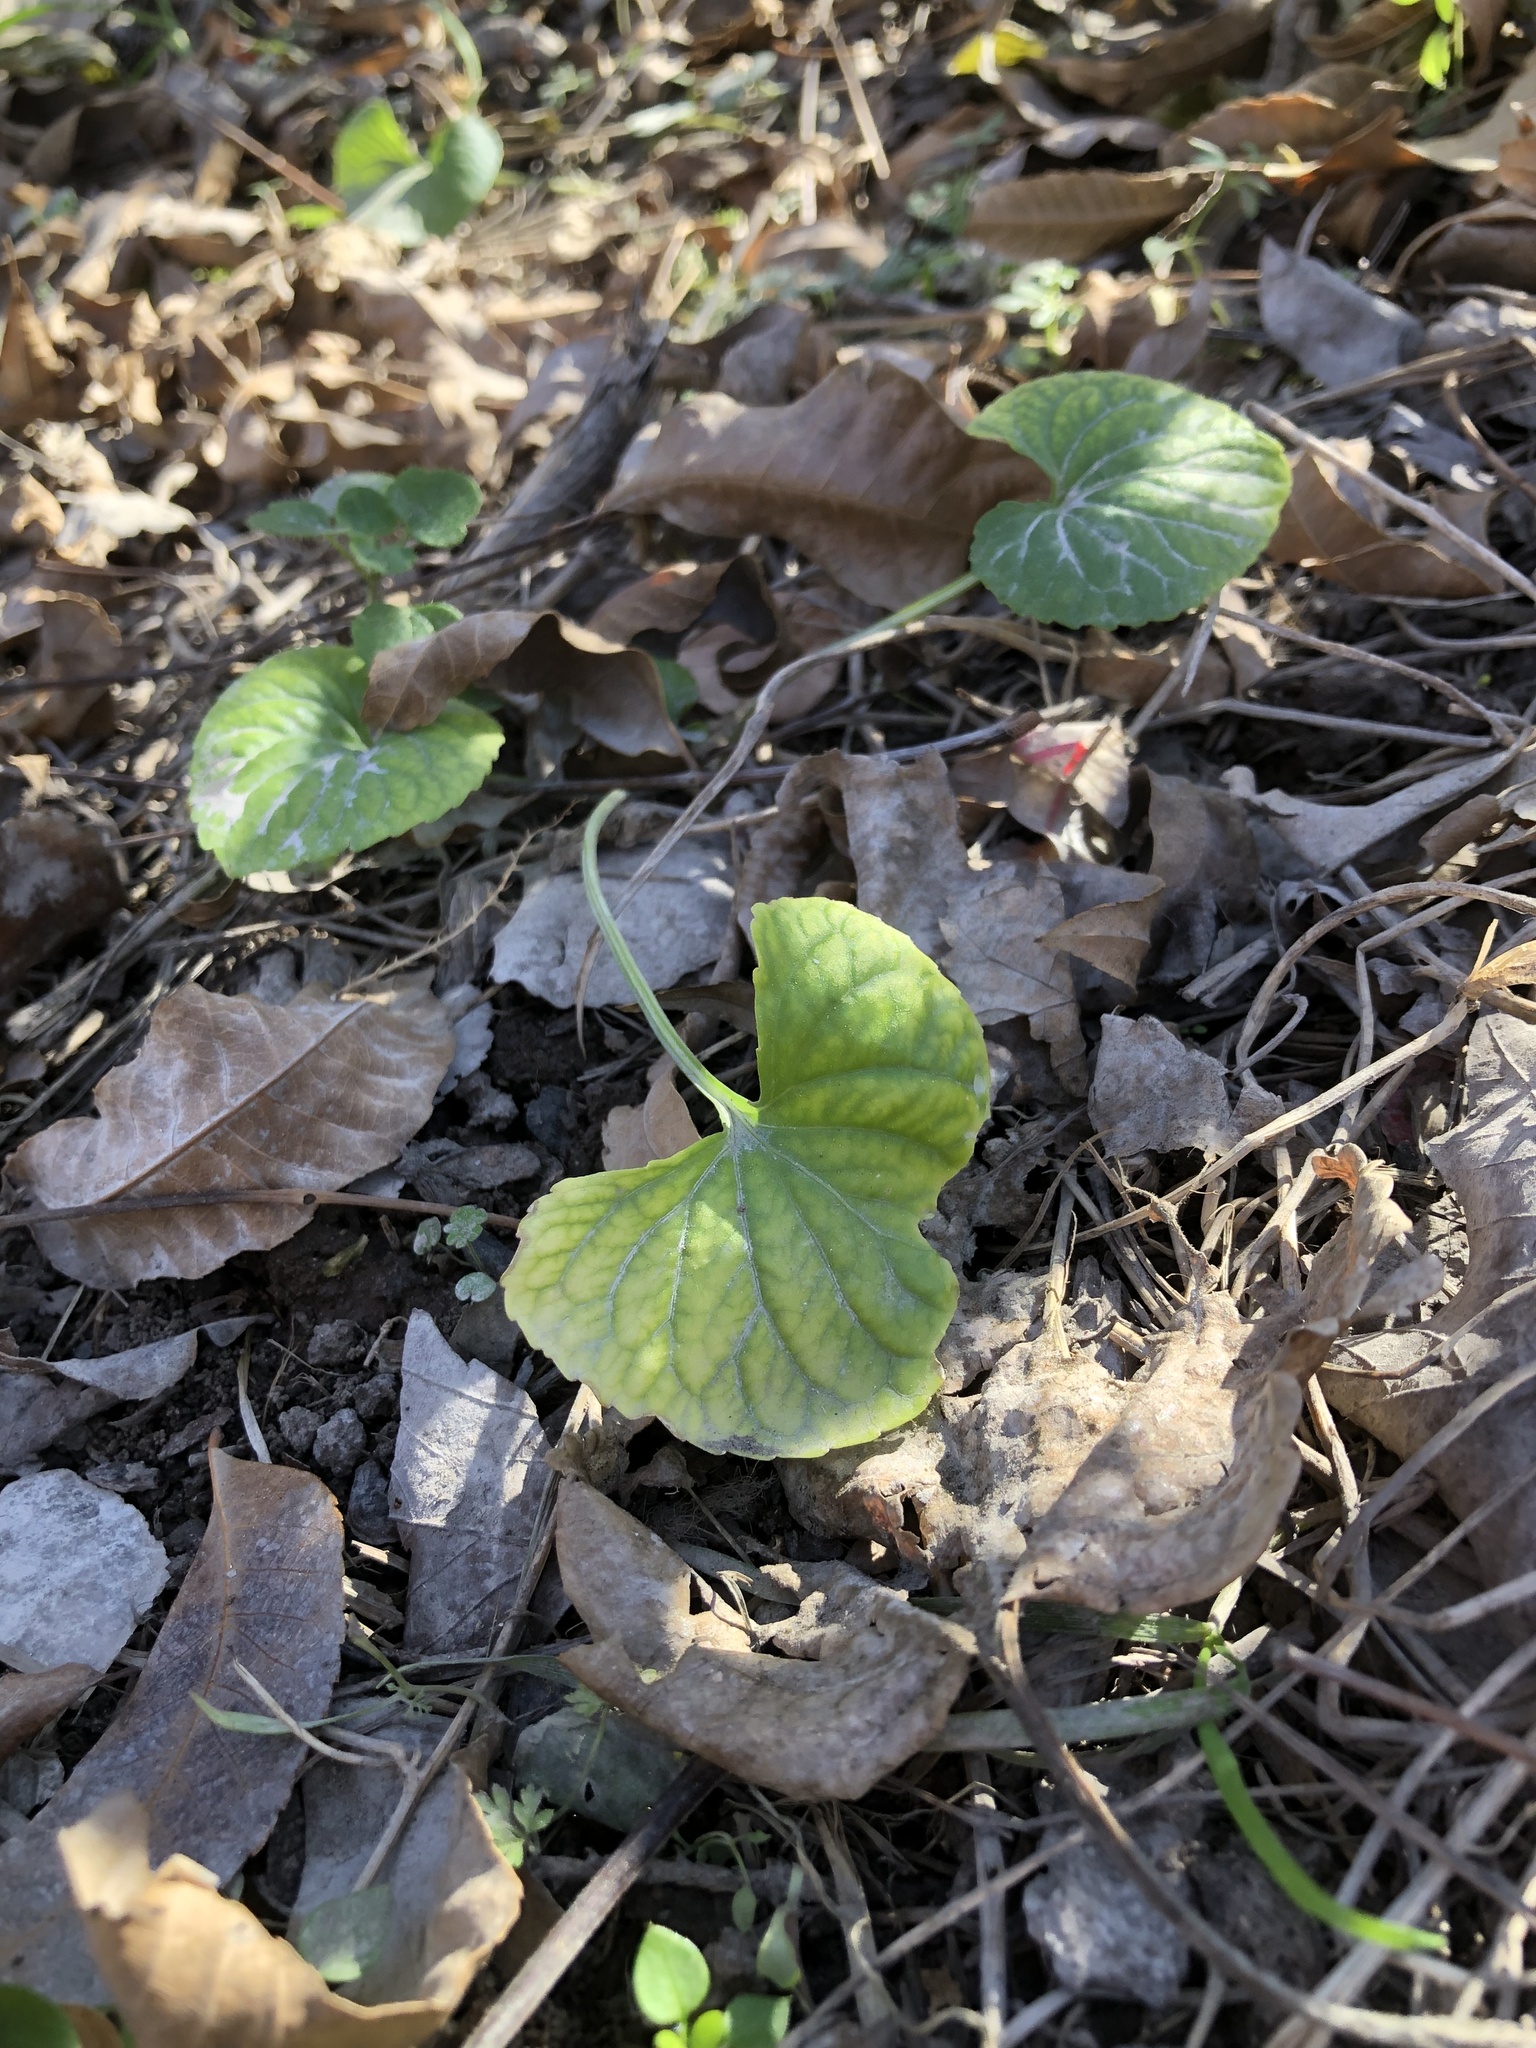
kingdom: Plantae
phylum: Tracheophyta
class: Magnoliopsida
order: Malpighiales
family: Violaceae
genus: Viola
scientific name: Viola sororia
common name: Dooryard violet
